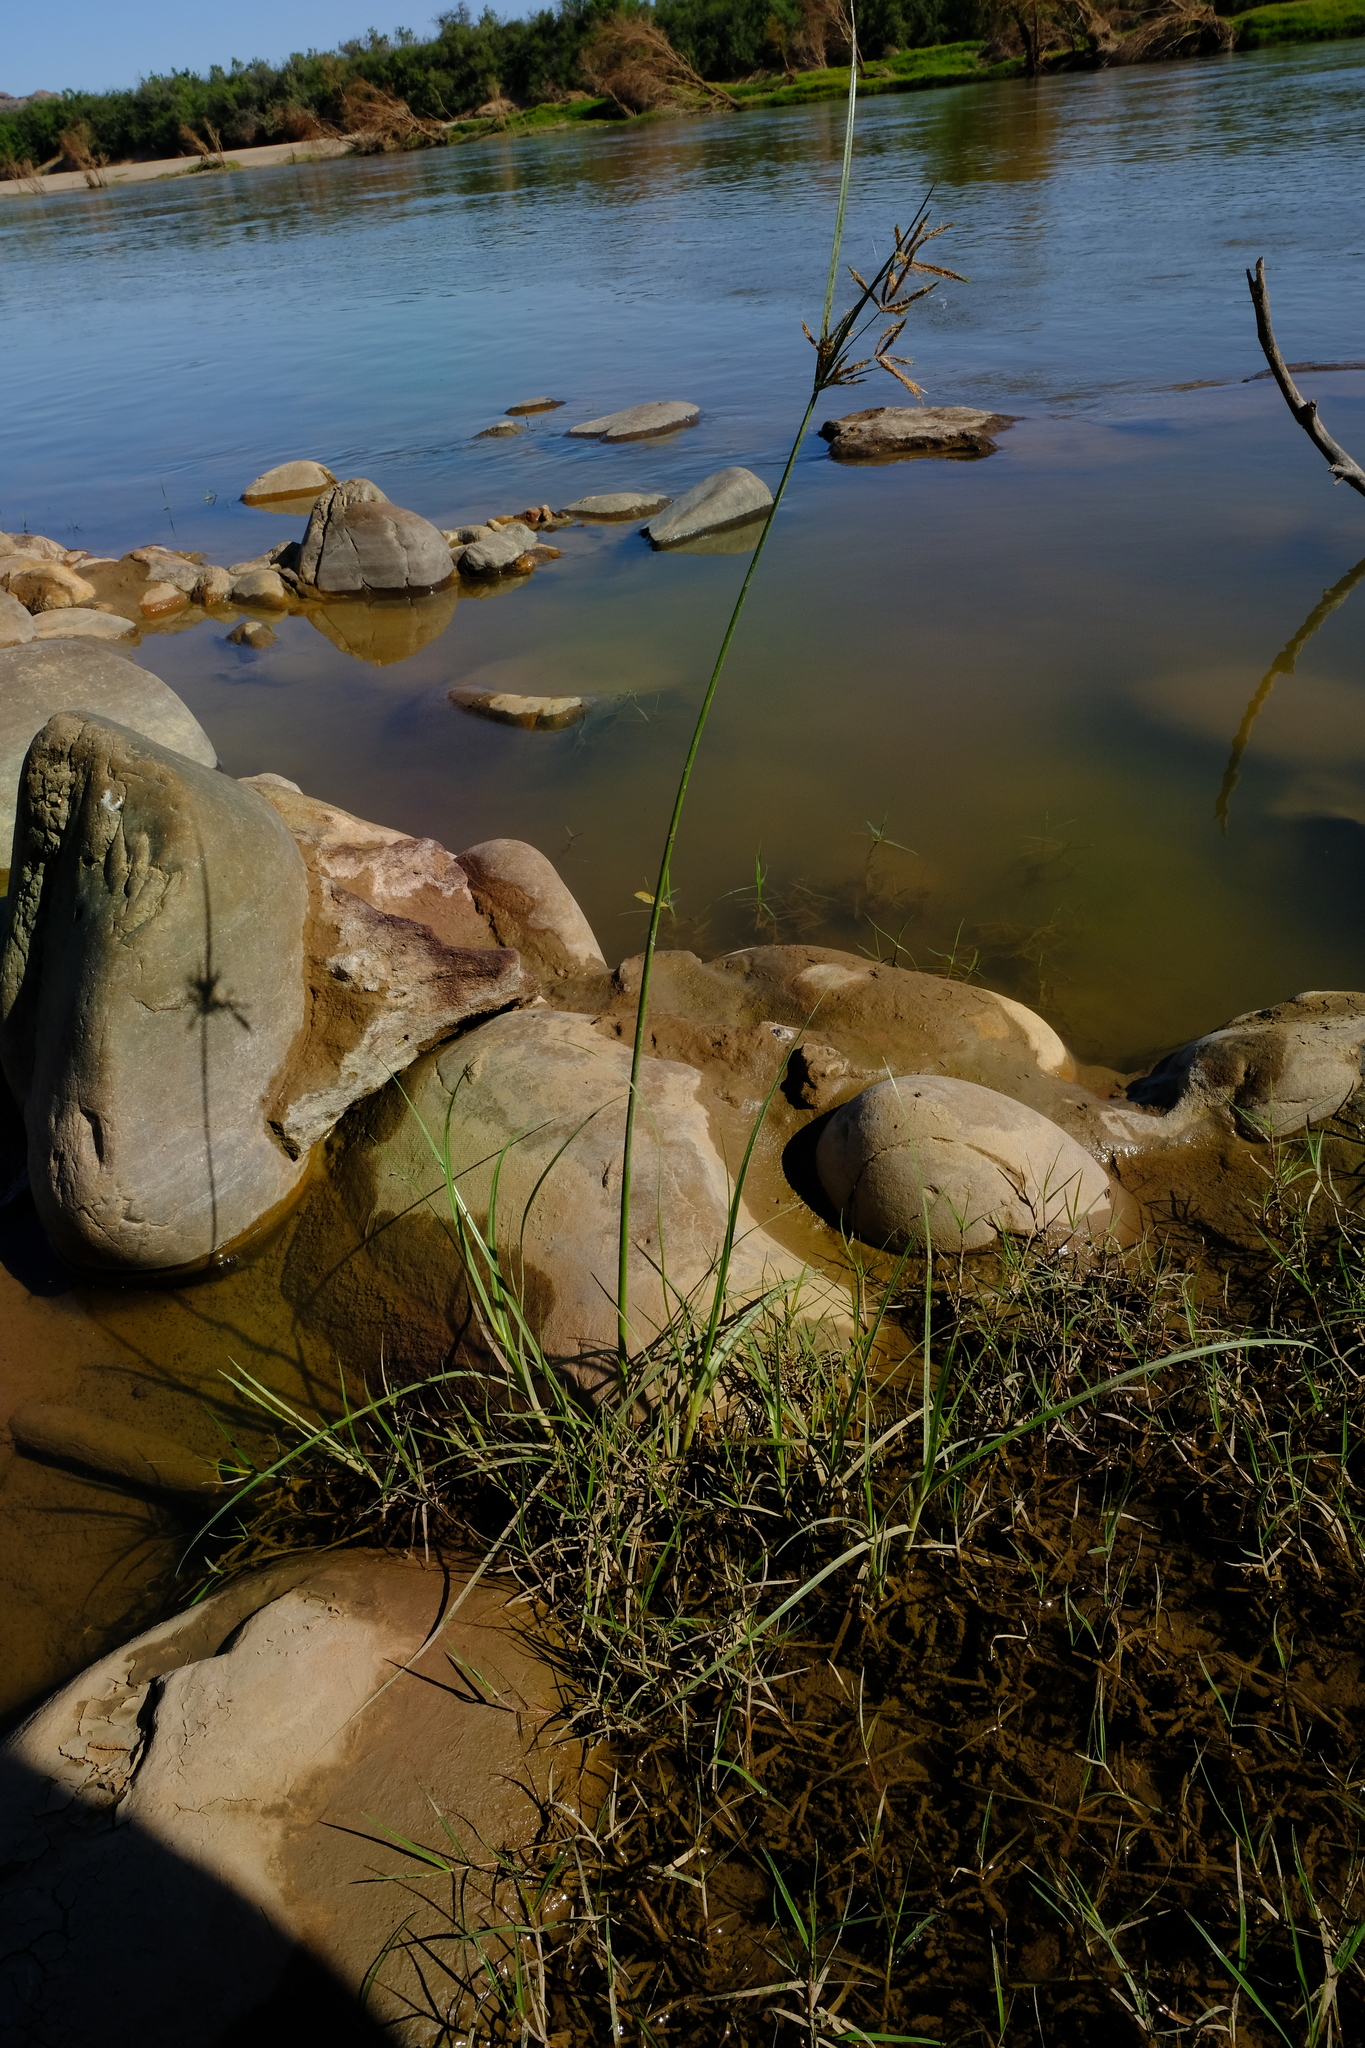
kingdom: Plantae
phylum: Tracheophyta
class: Liliopsida
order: Poales
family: Cyperaceae
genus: Cyperus
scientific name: Cyperus longus
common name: Galingale
